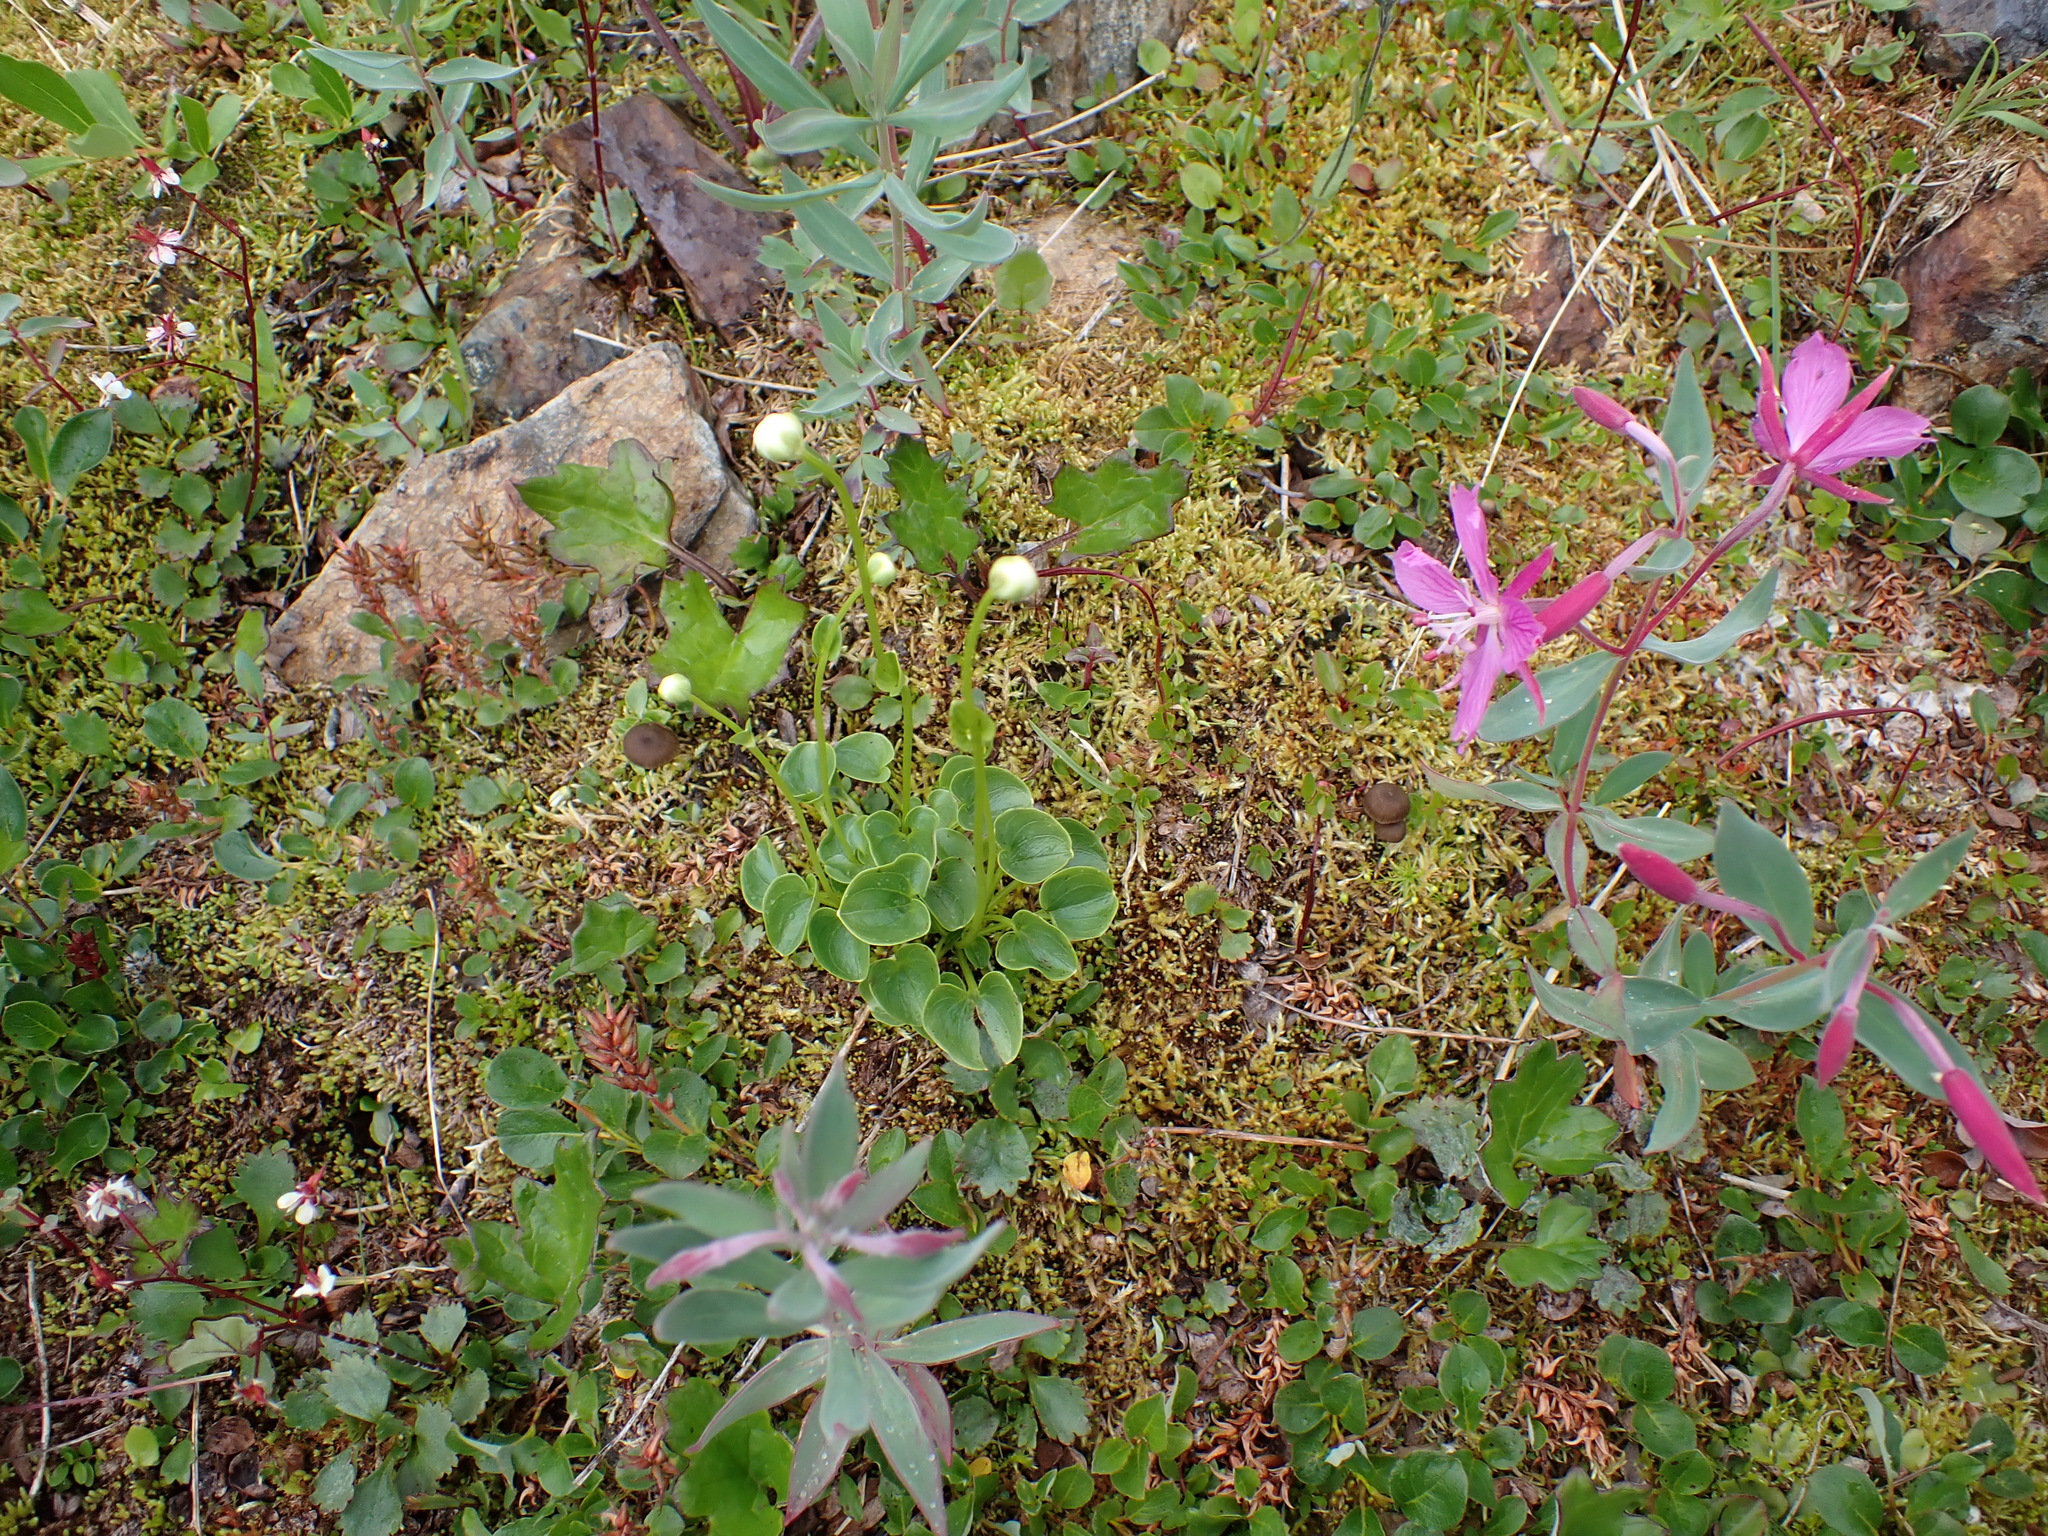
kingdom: Plantae
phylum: Tracheophyta
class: Magnoliopsida
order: Myrtales
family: Onagraceae
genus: Chamaenerion
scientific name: Chamaenerion latifolium
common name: Dwarf fireweed
